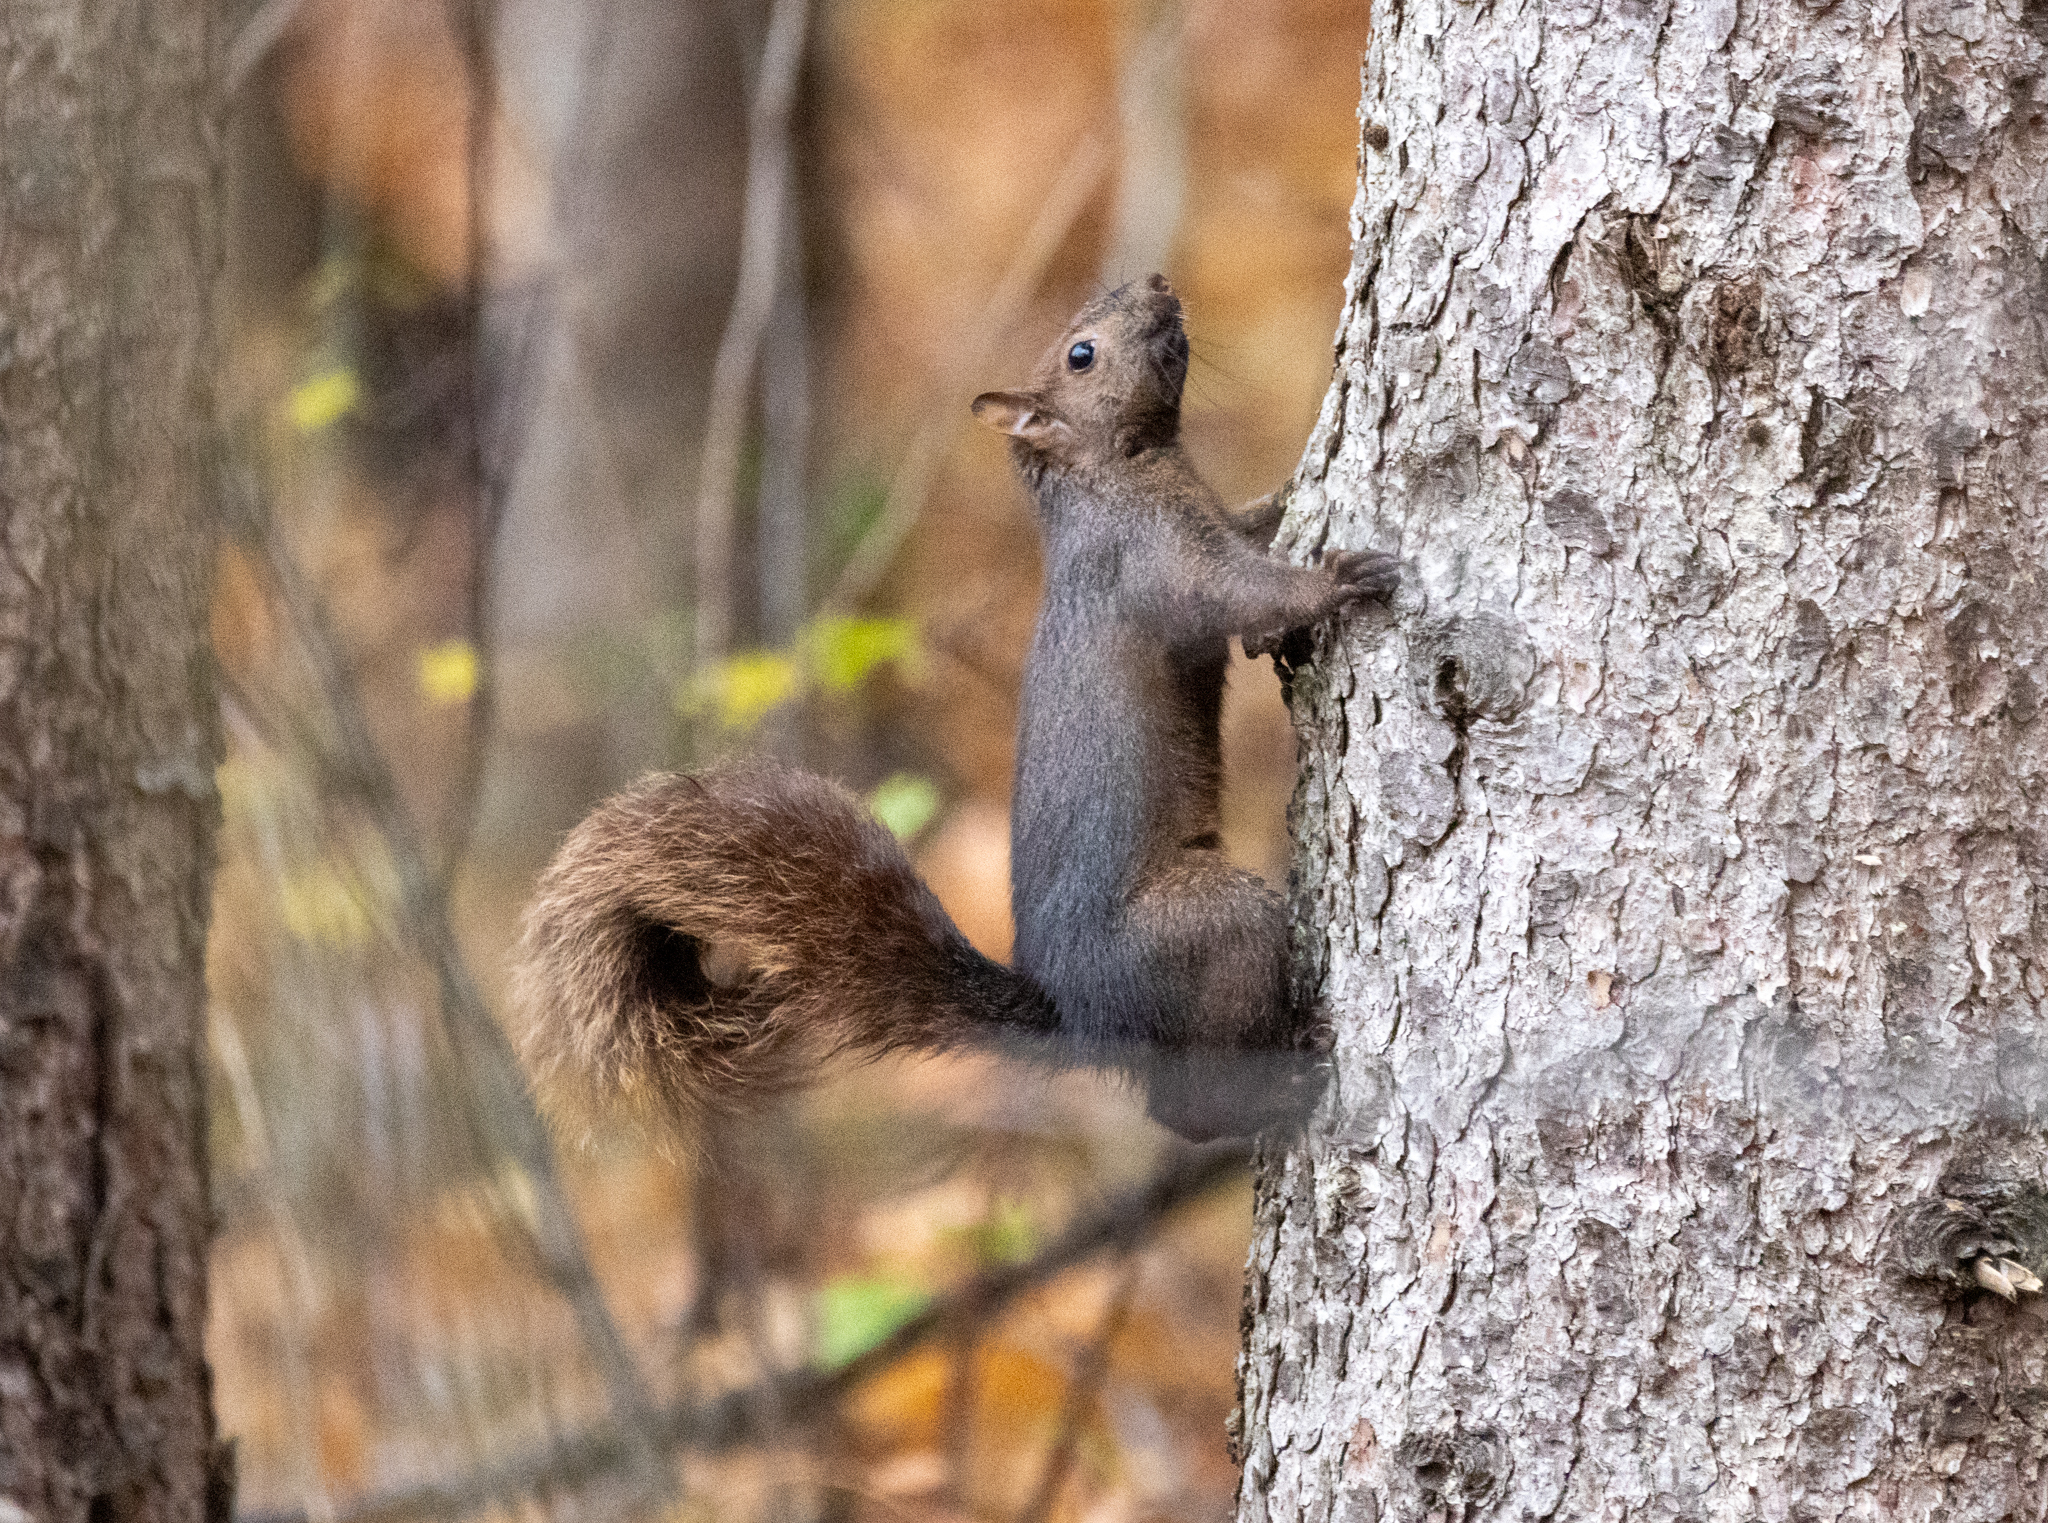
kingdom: Animalia
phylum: Chordata
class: Mammalia
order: Rodentia
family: Sciuridae
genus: Sciurus
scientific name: Sciurus carolinensis
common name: Eastern gray squirrel
